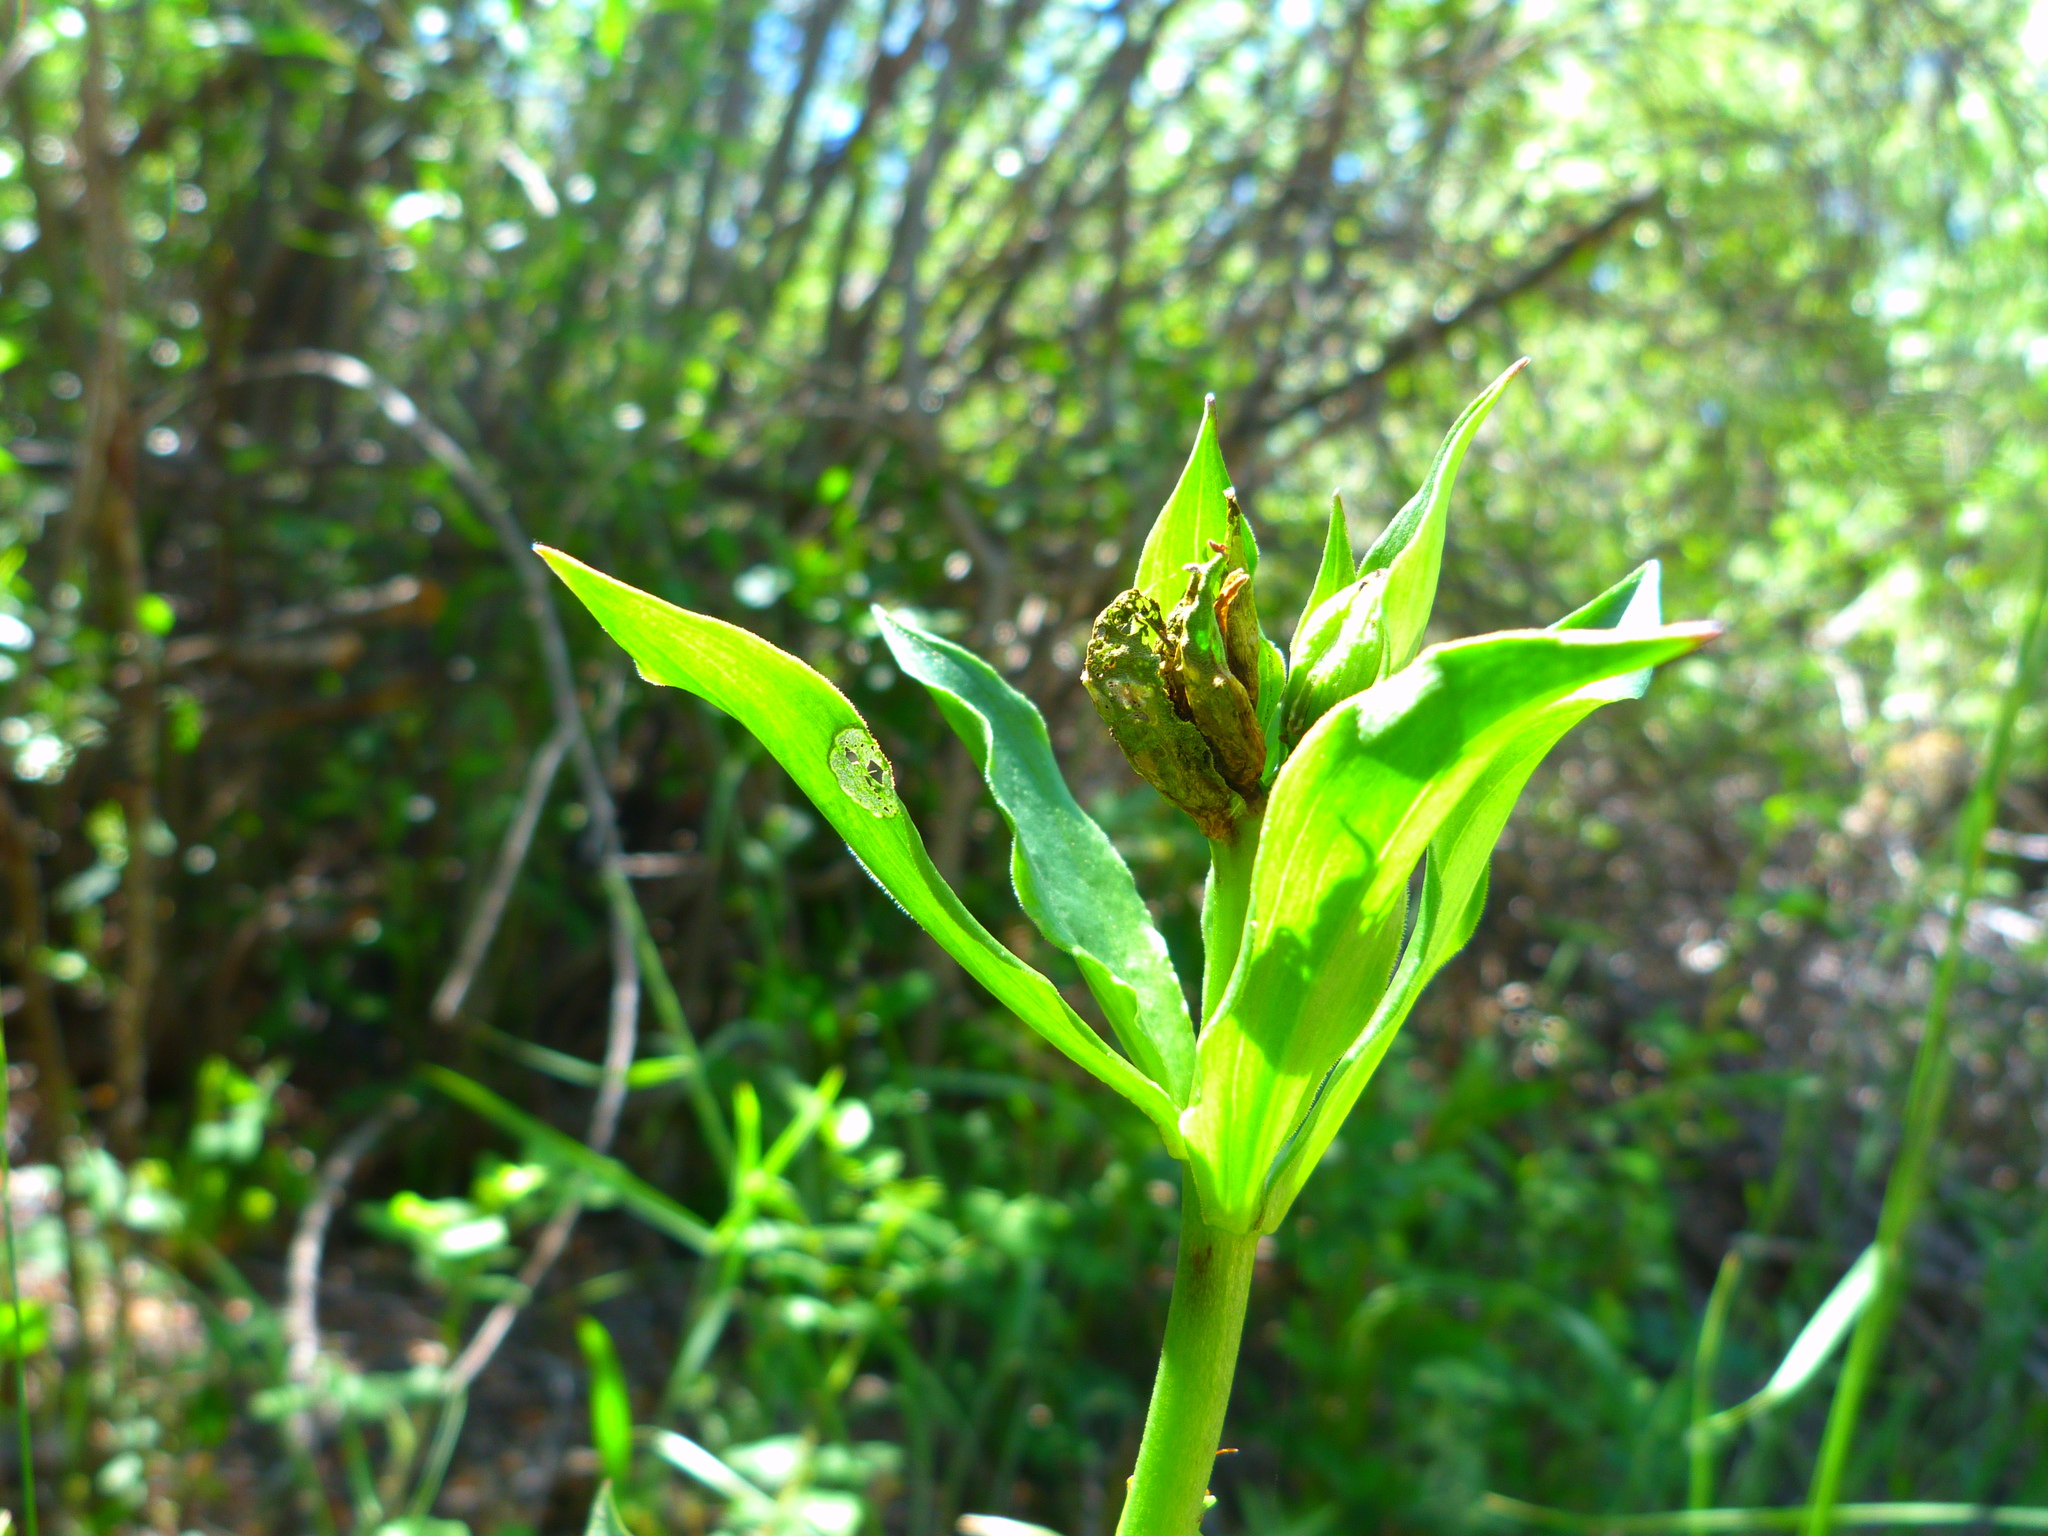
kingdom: Plantae
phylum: Tracheophyta
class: Liliopsida
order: Liliales
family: Liliaceae
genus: Lilium
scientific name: Lilium humboldtii
